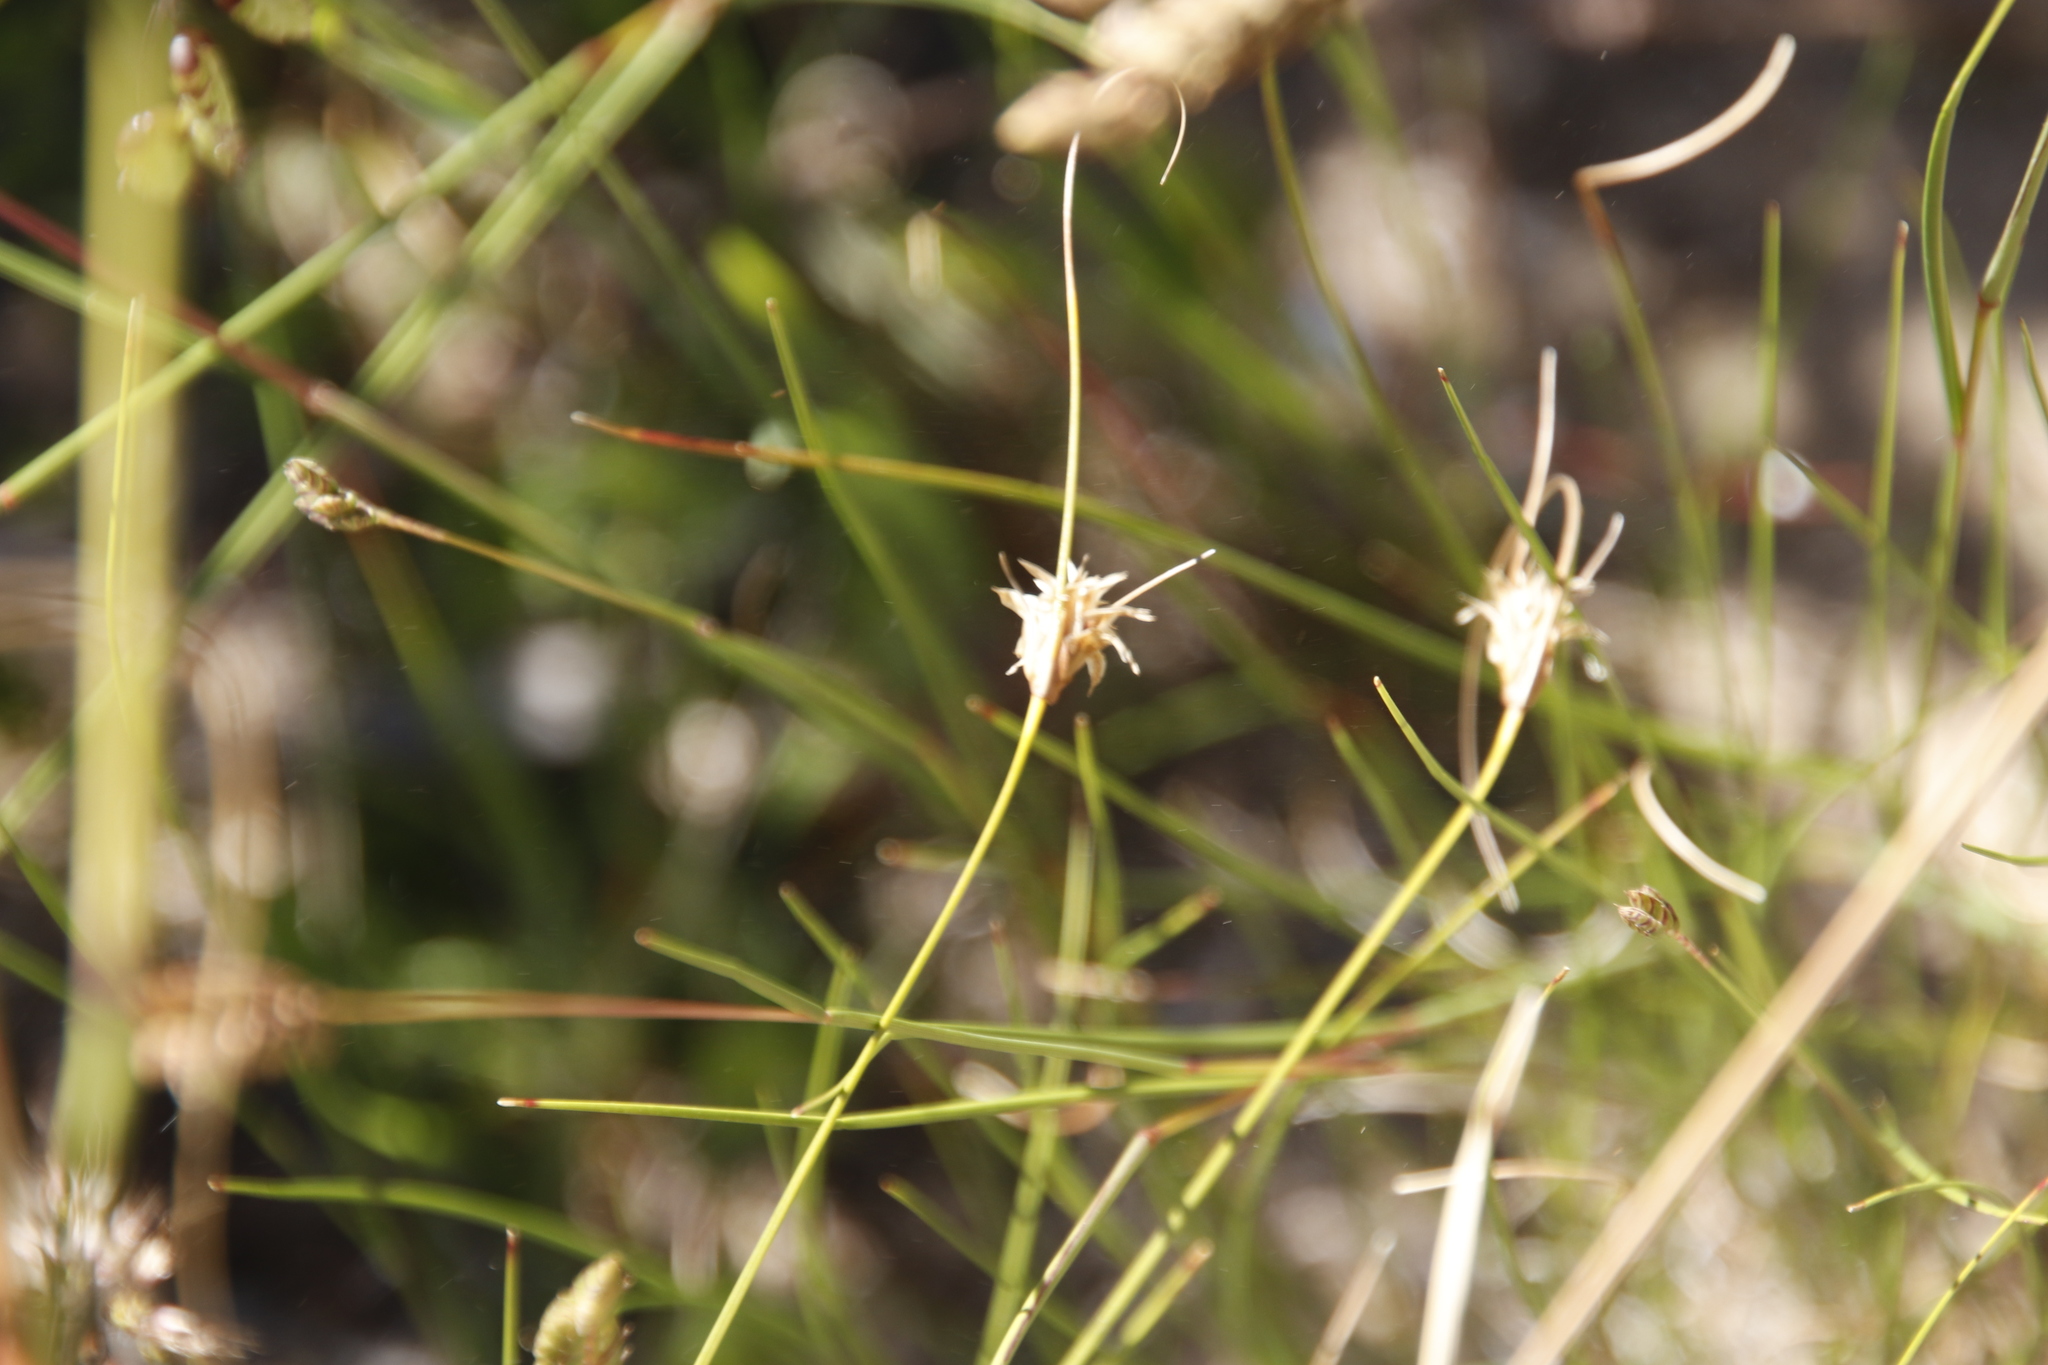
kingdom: Plantae
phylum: Tracheophyta
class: Liliopsida
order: Poales
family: Cyperaceae
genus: Ficinia
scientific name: Ficinia nigrescens
